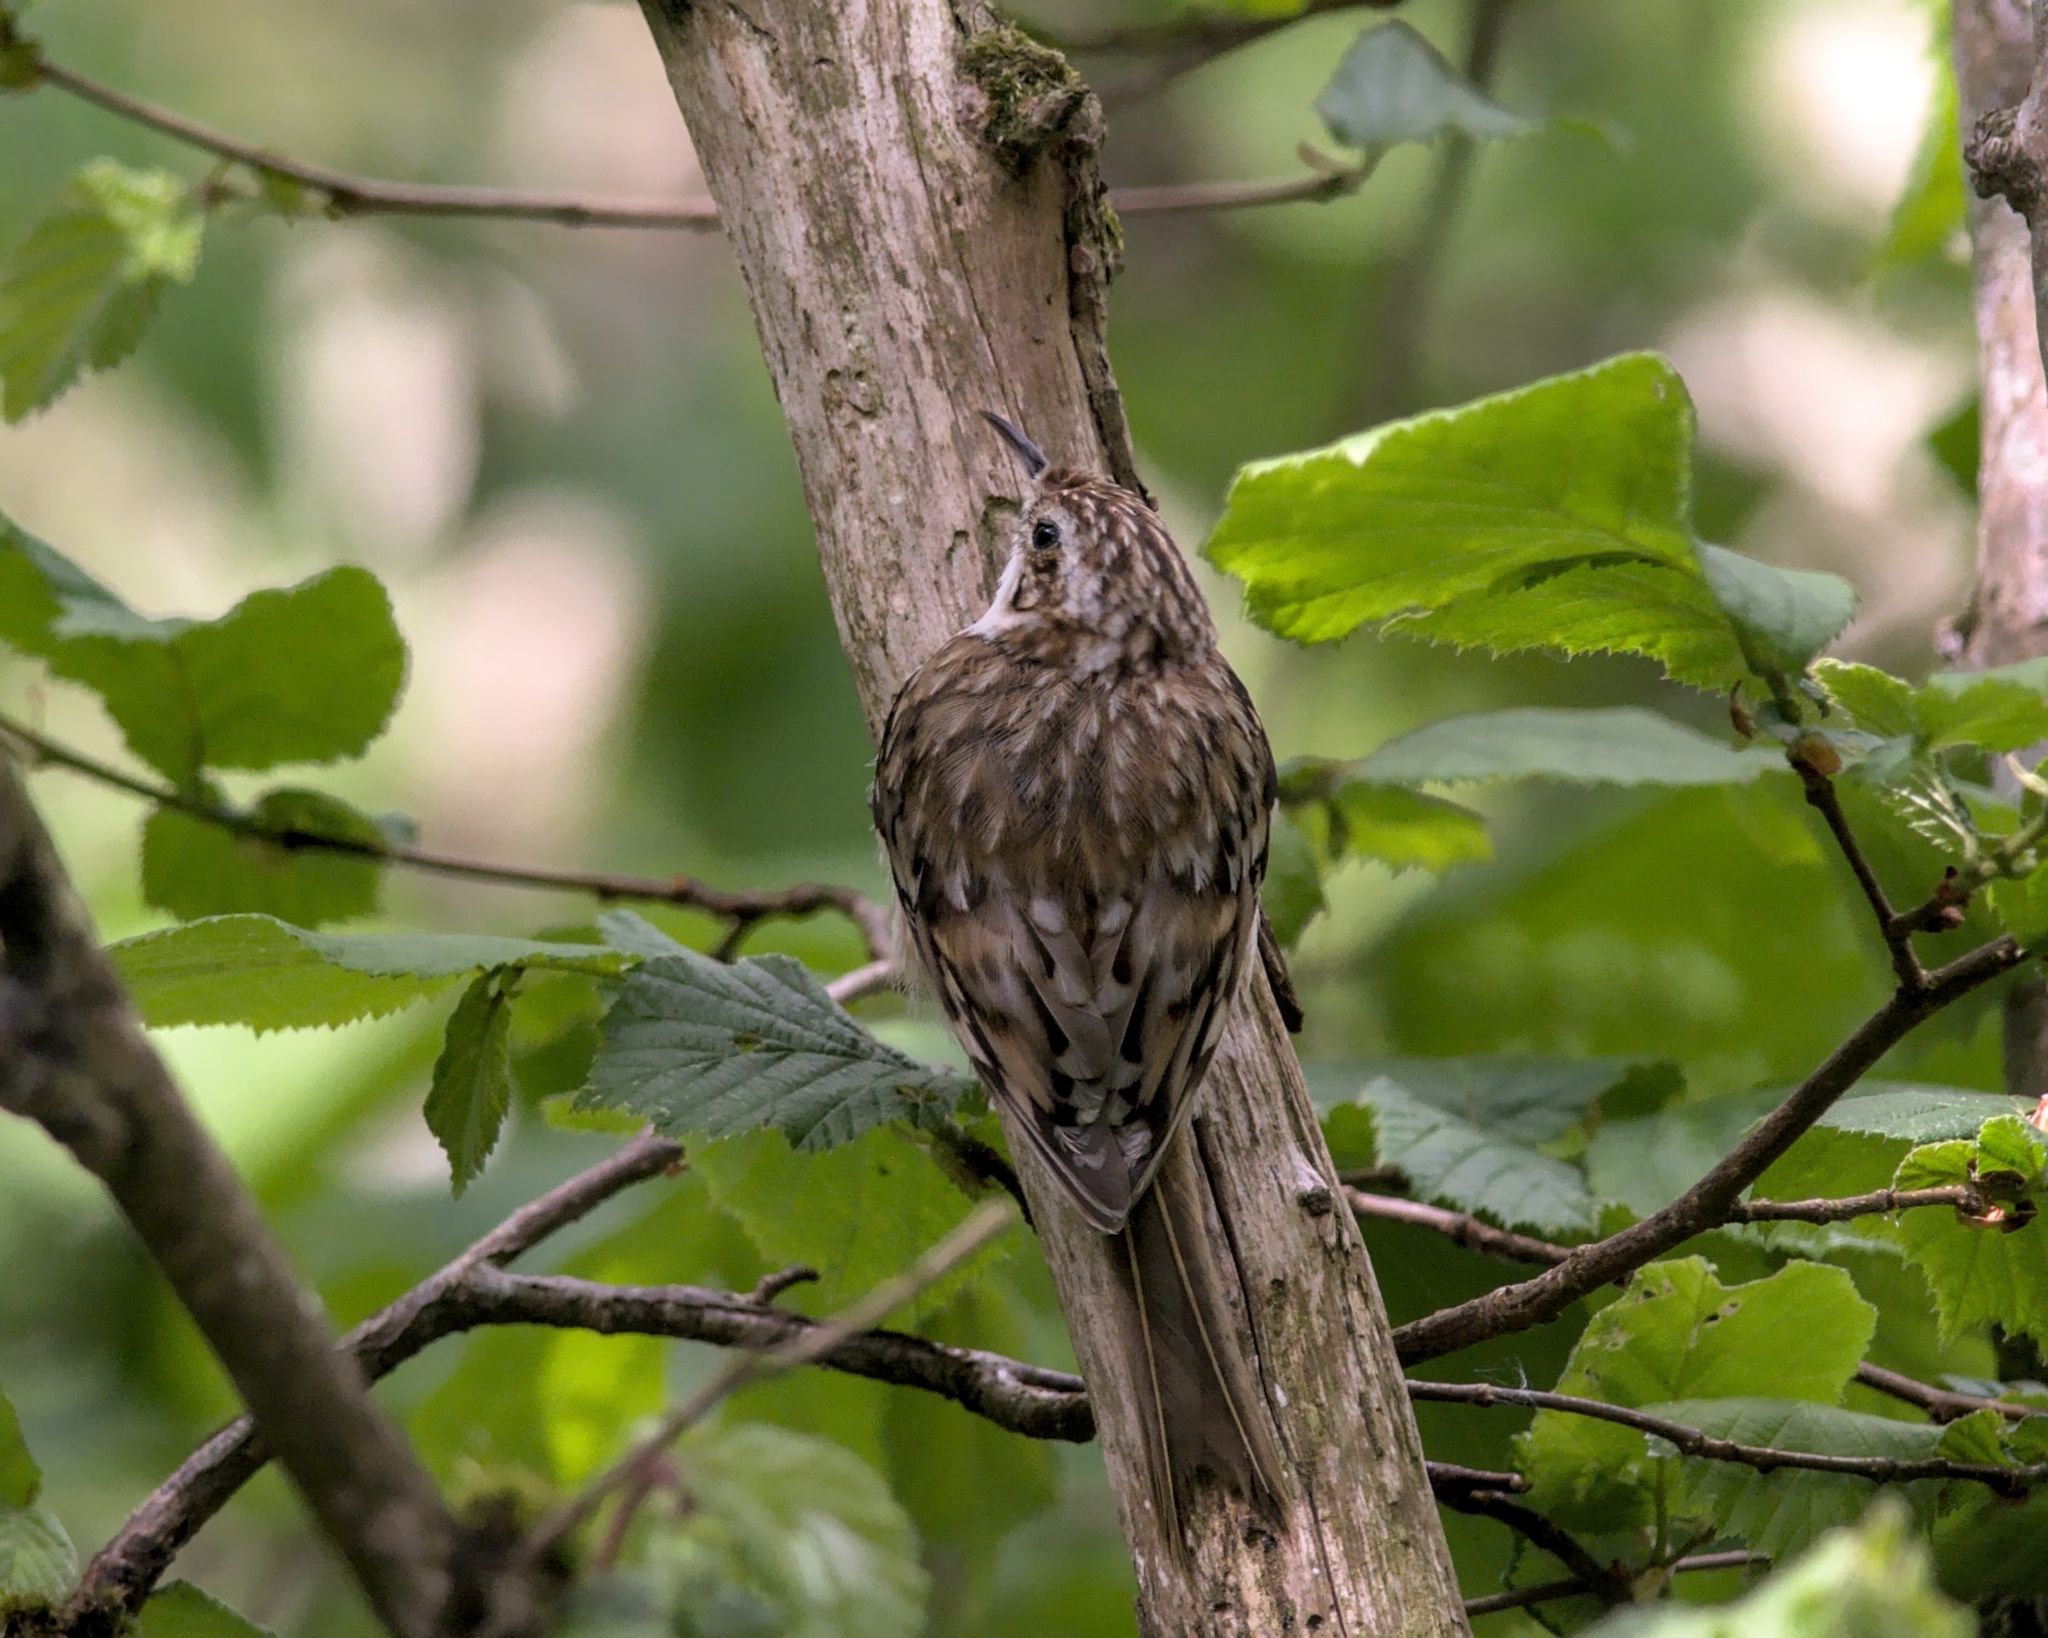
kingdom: Animalia
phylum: Chordata
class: Aves
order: Passeriformes
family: Certhiidae
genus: Certhia
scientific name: Certhia familiaris
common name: Eurasian treecreeper
